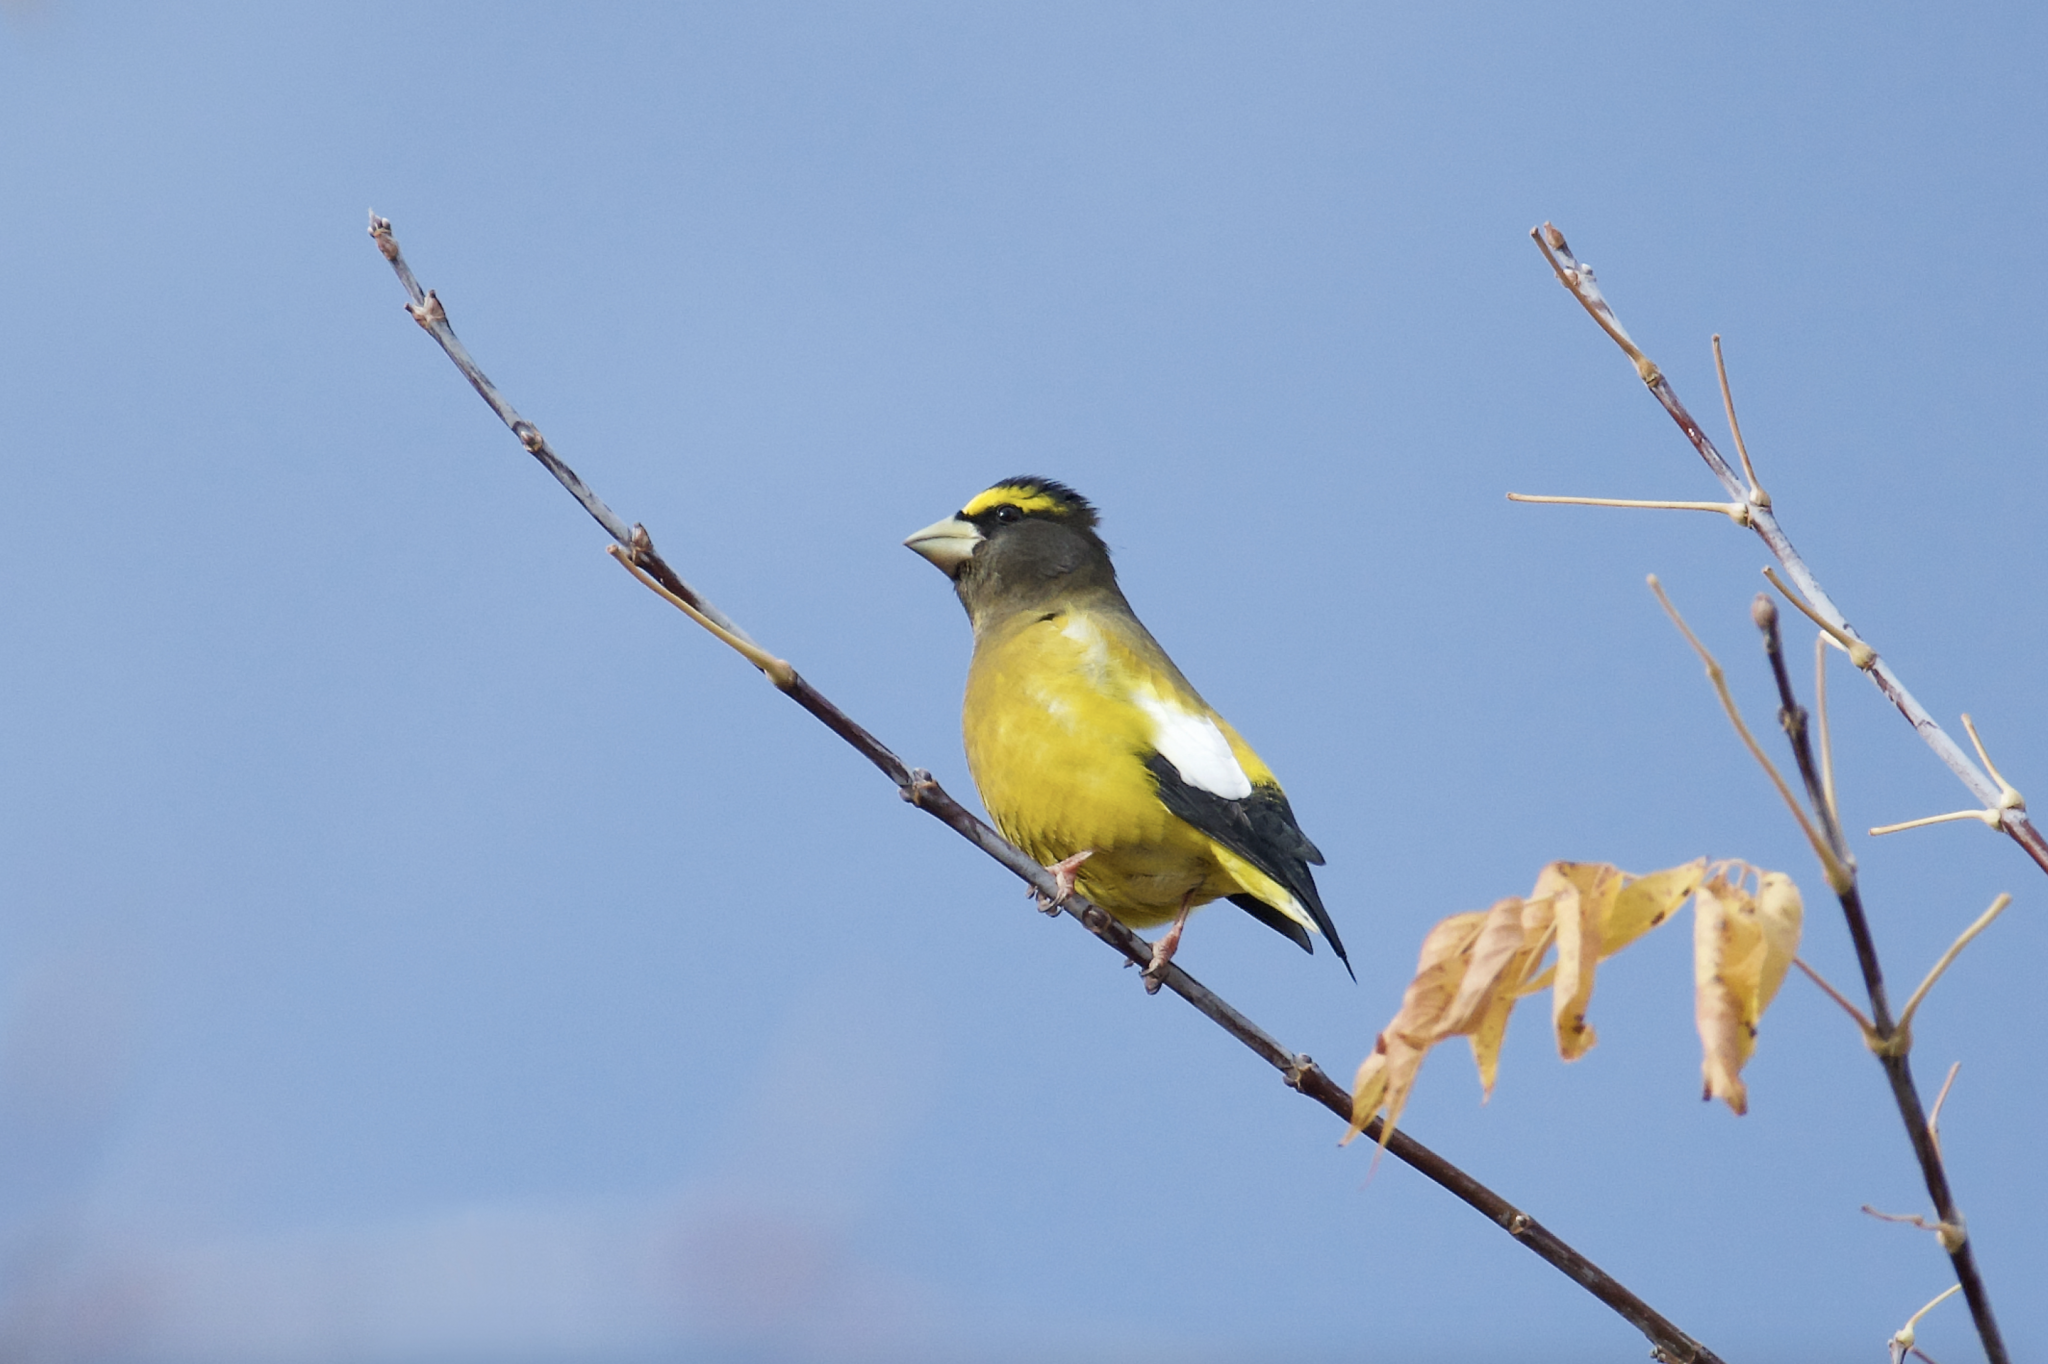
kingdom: Animalia
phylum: Chordata
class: Aves
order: Passeriformes
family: Fringillidae
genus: Hesperiphona
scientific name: Hesperiphona vespertina
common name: Evening grosbeak
